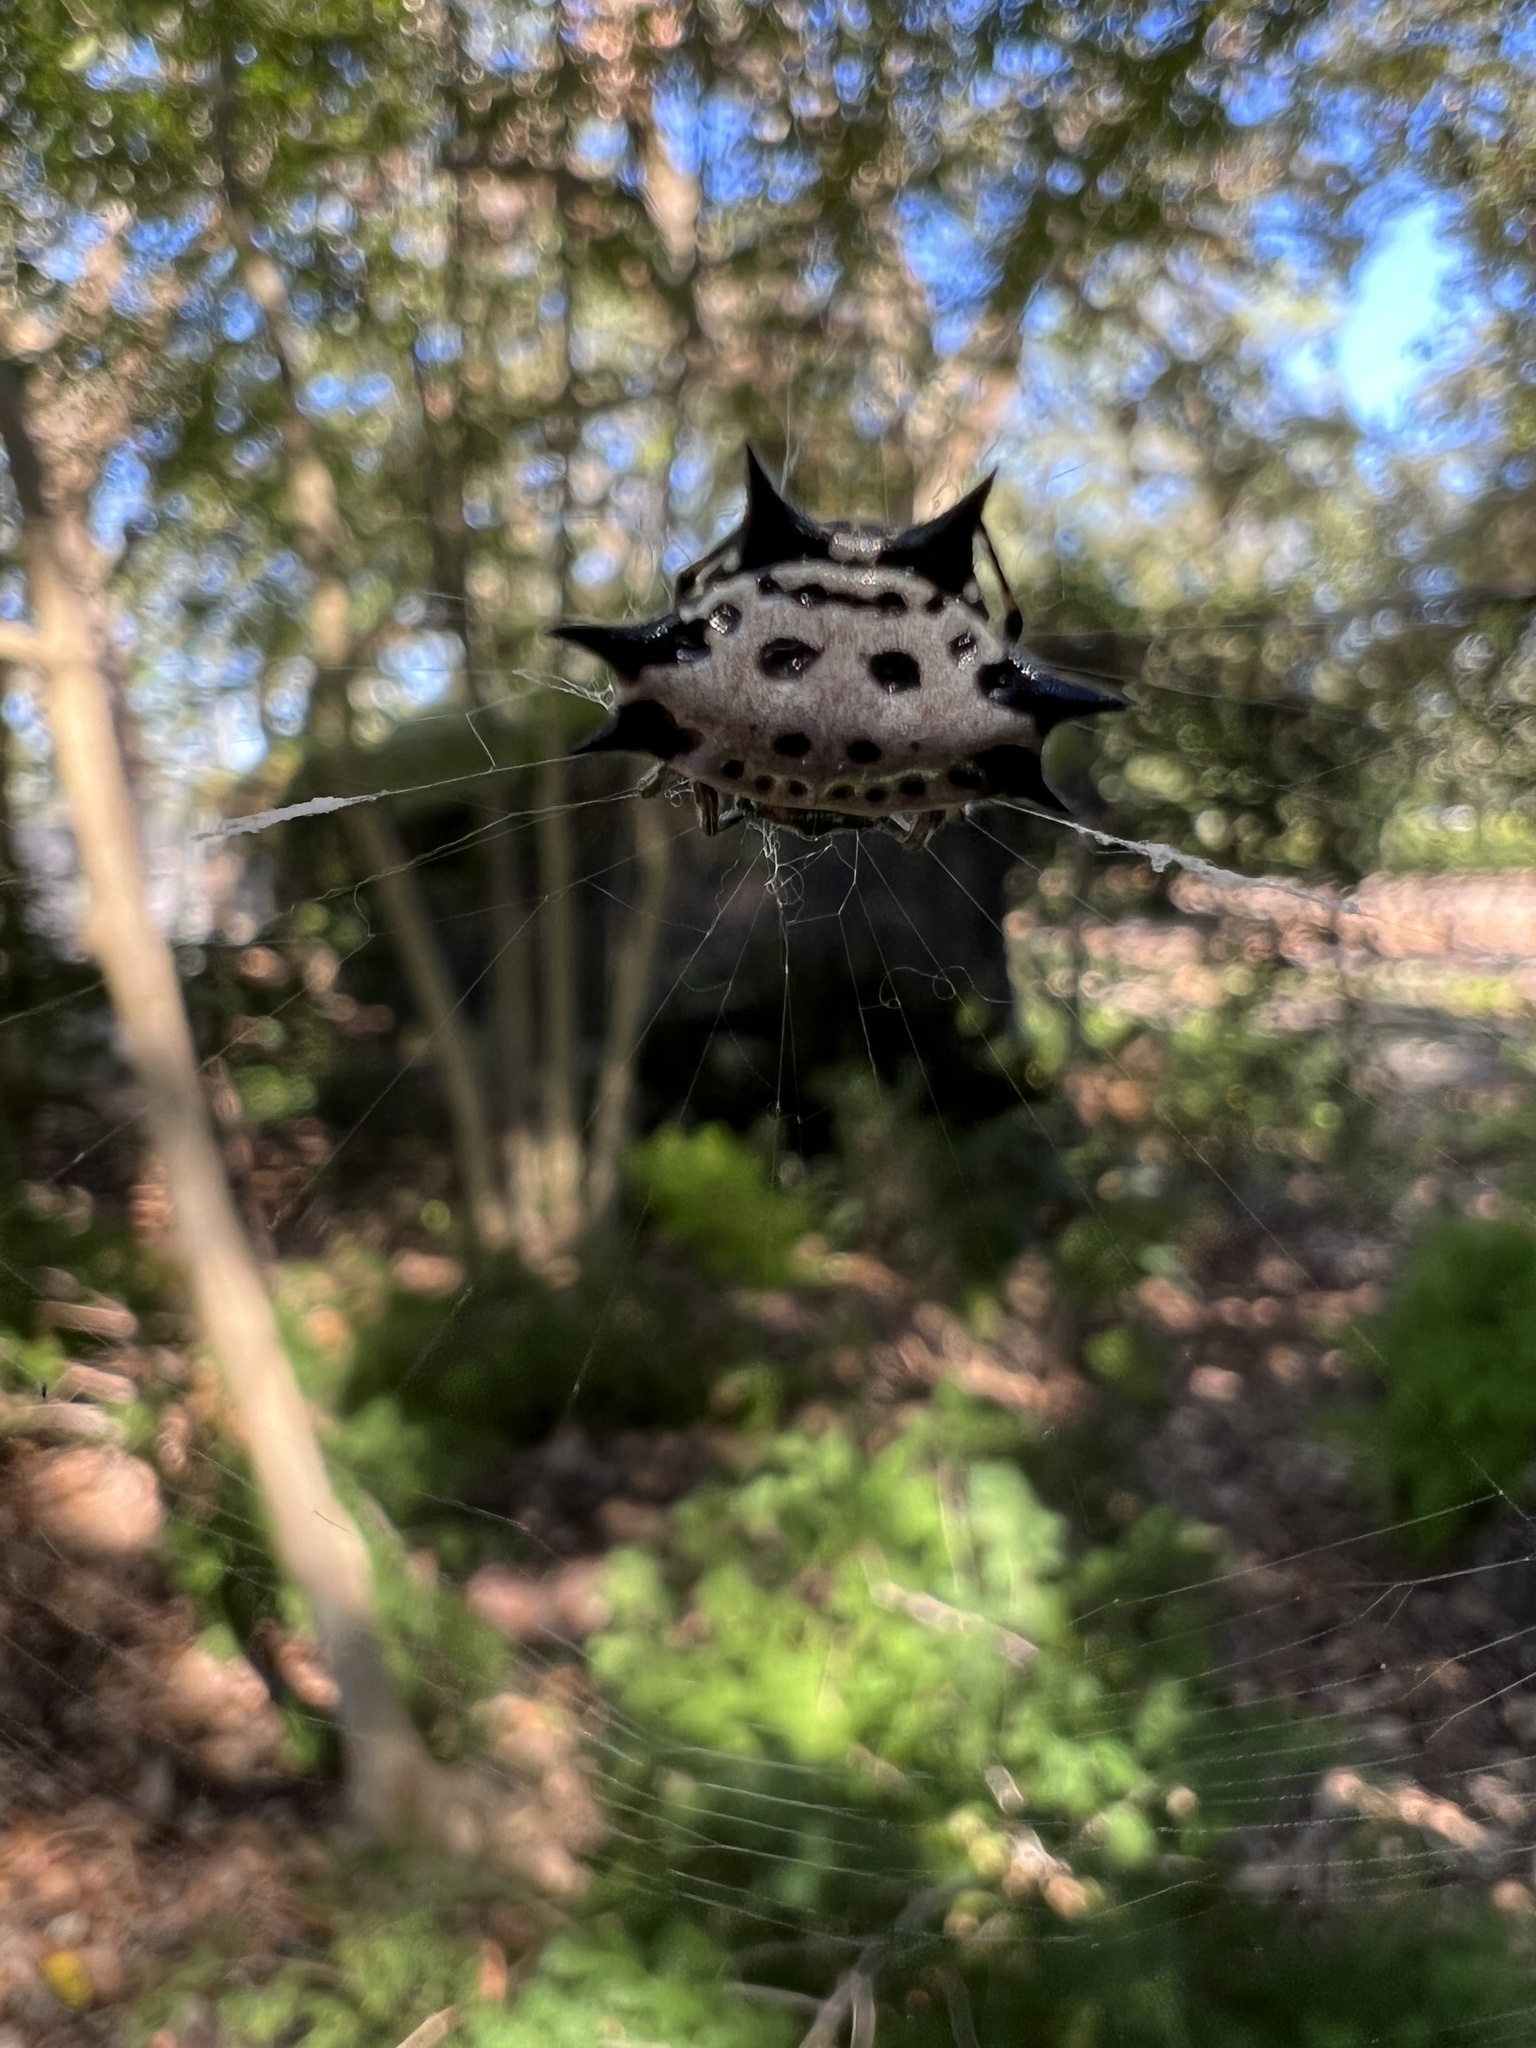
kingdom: Animalia
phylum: Arthropoda
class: Arachnida
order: Araneae
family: Araneidae
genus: Gasteracantha
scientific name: Gasteracantha cancriformis
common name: Orb weavers
